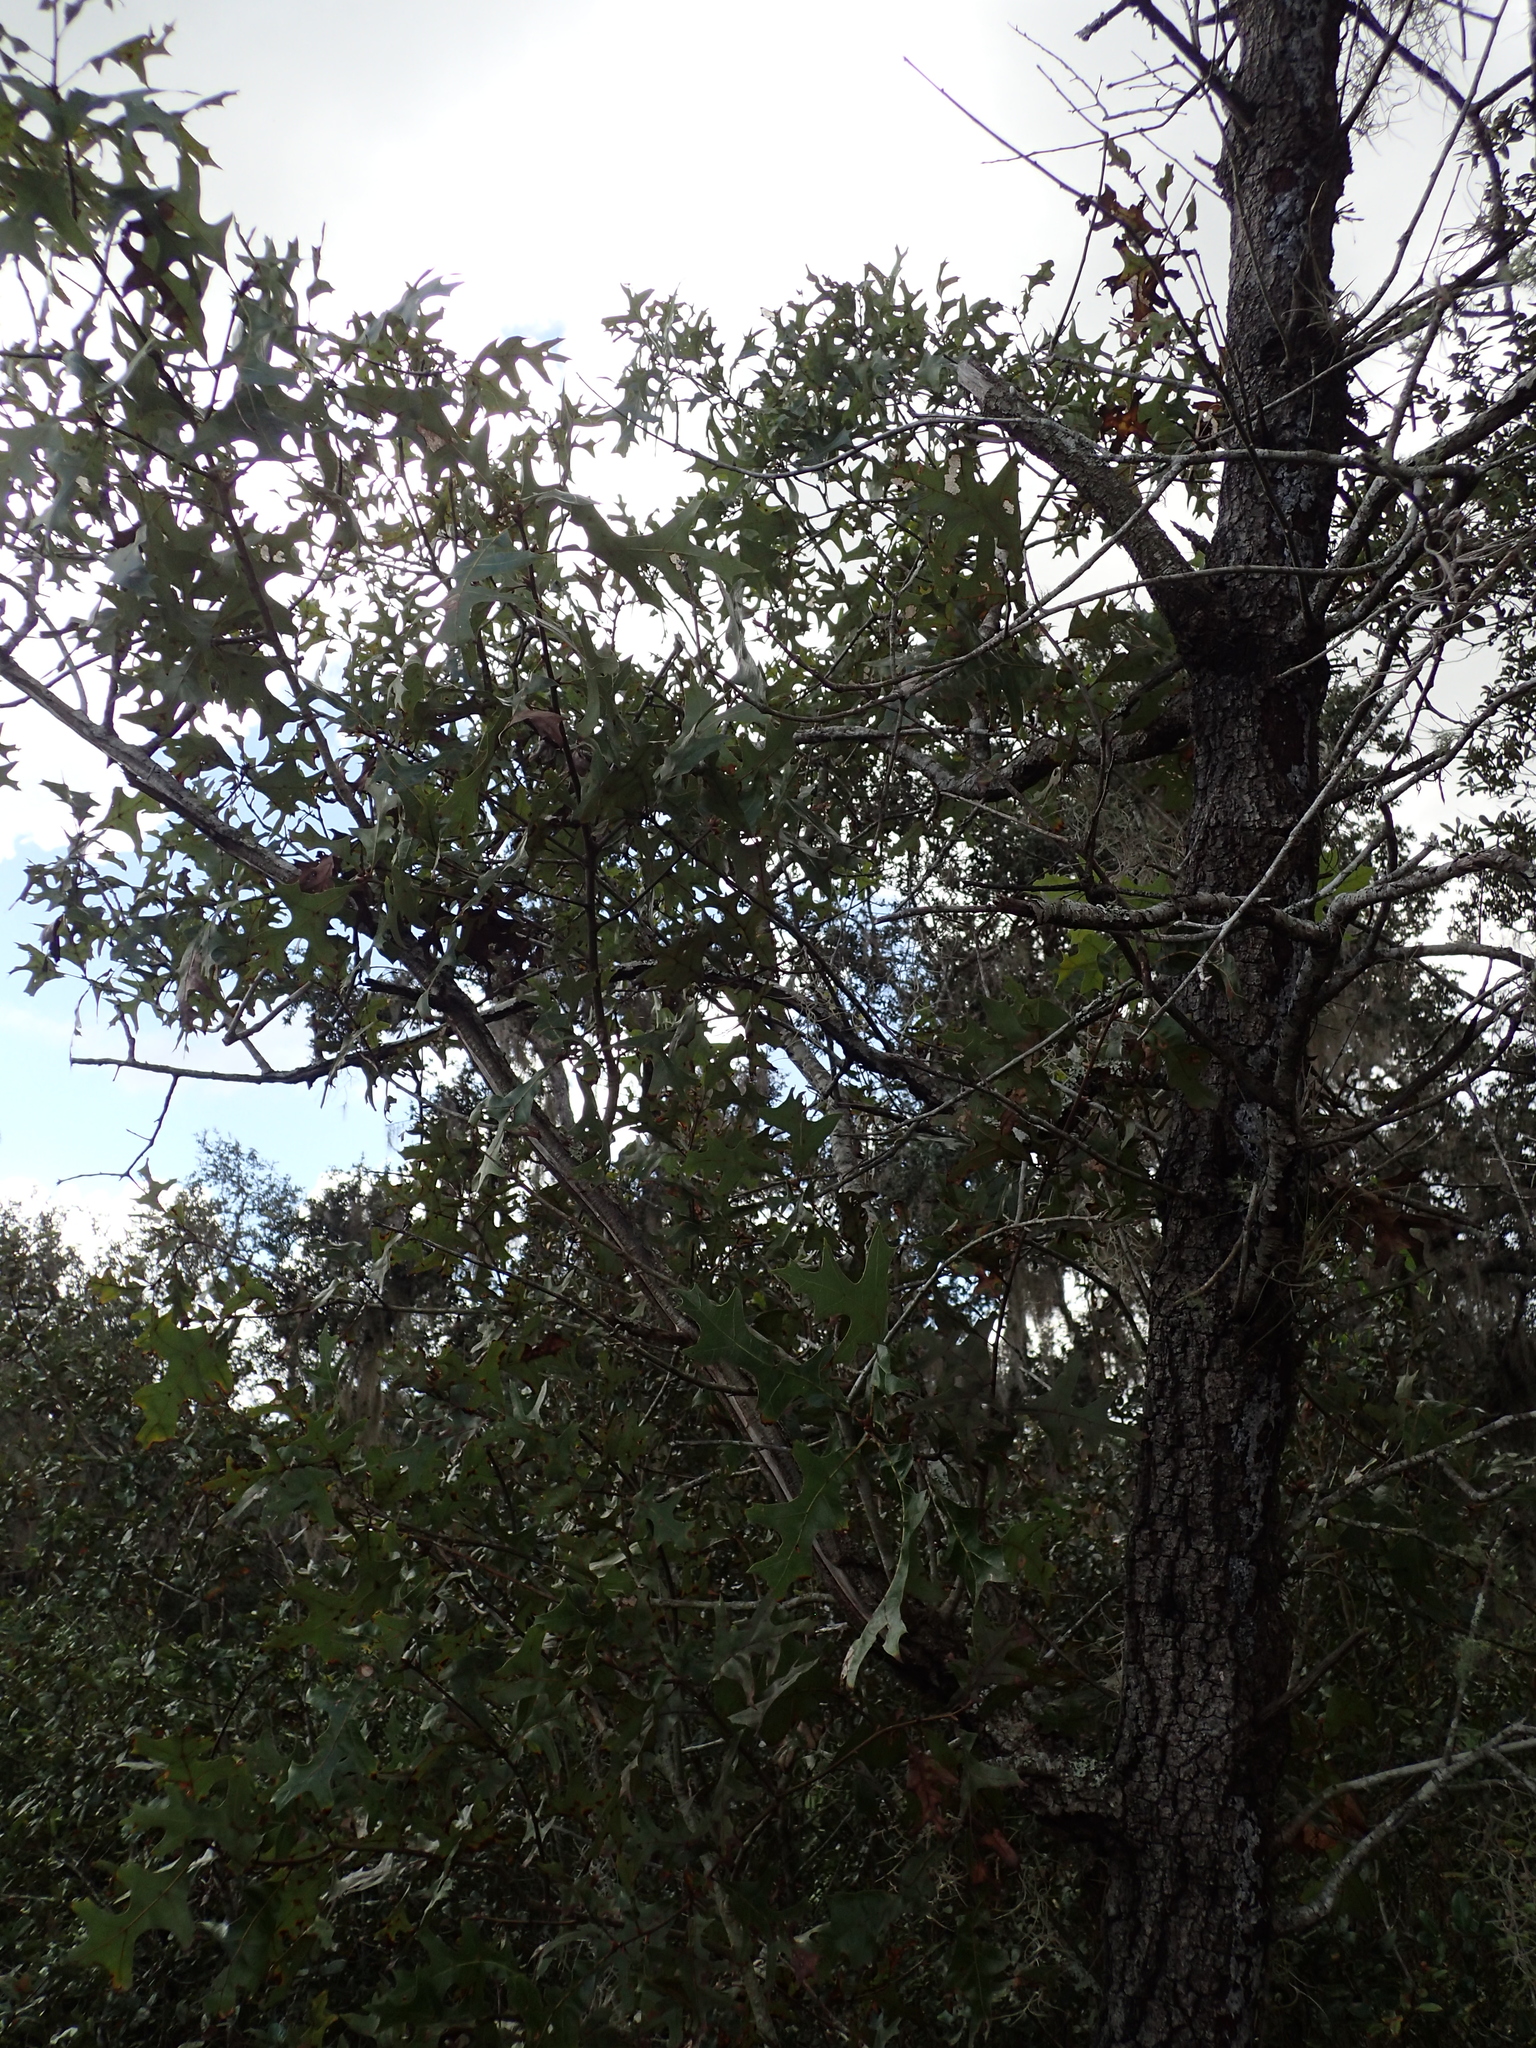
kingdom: Plantae
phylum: Tracheophyta
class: Magnoliopsida
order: Fagales
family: Fagaceae
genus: Quercus
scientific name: Quercus laevis
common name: Turkey oak
